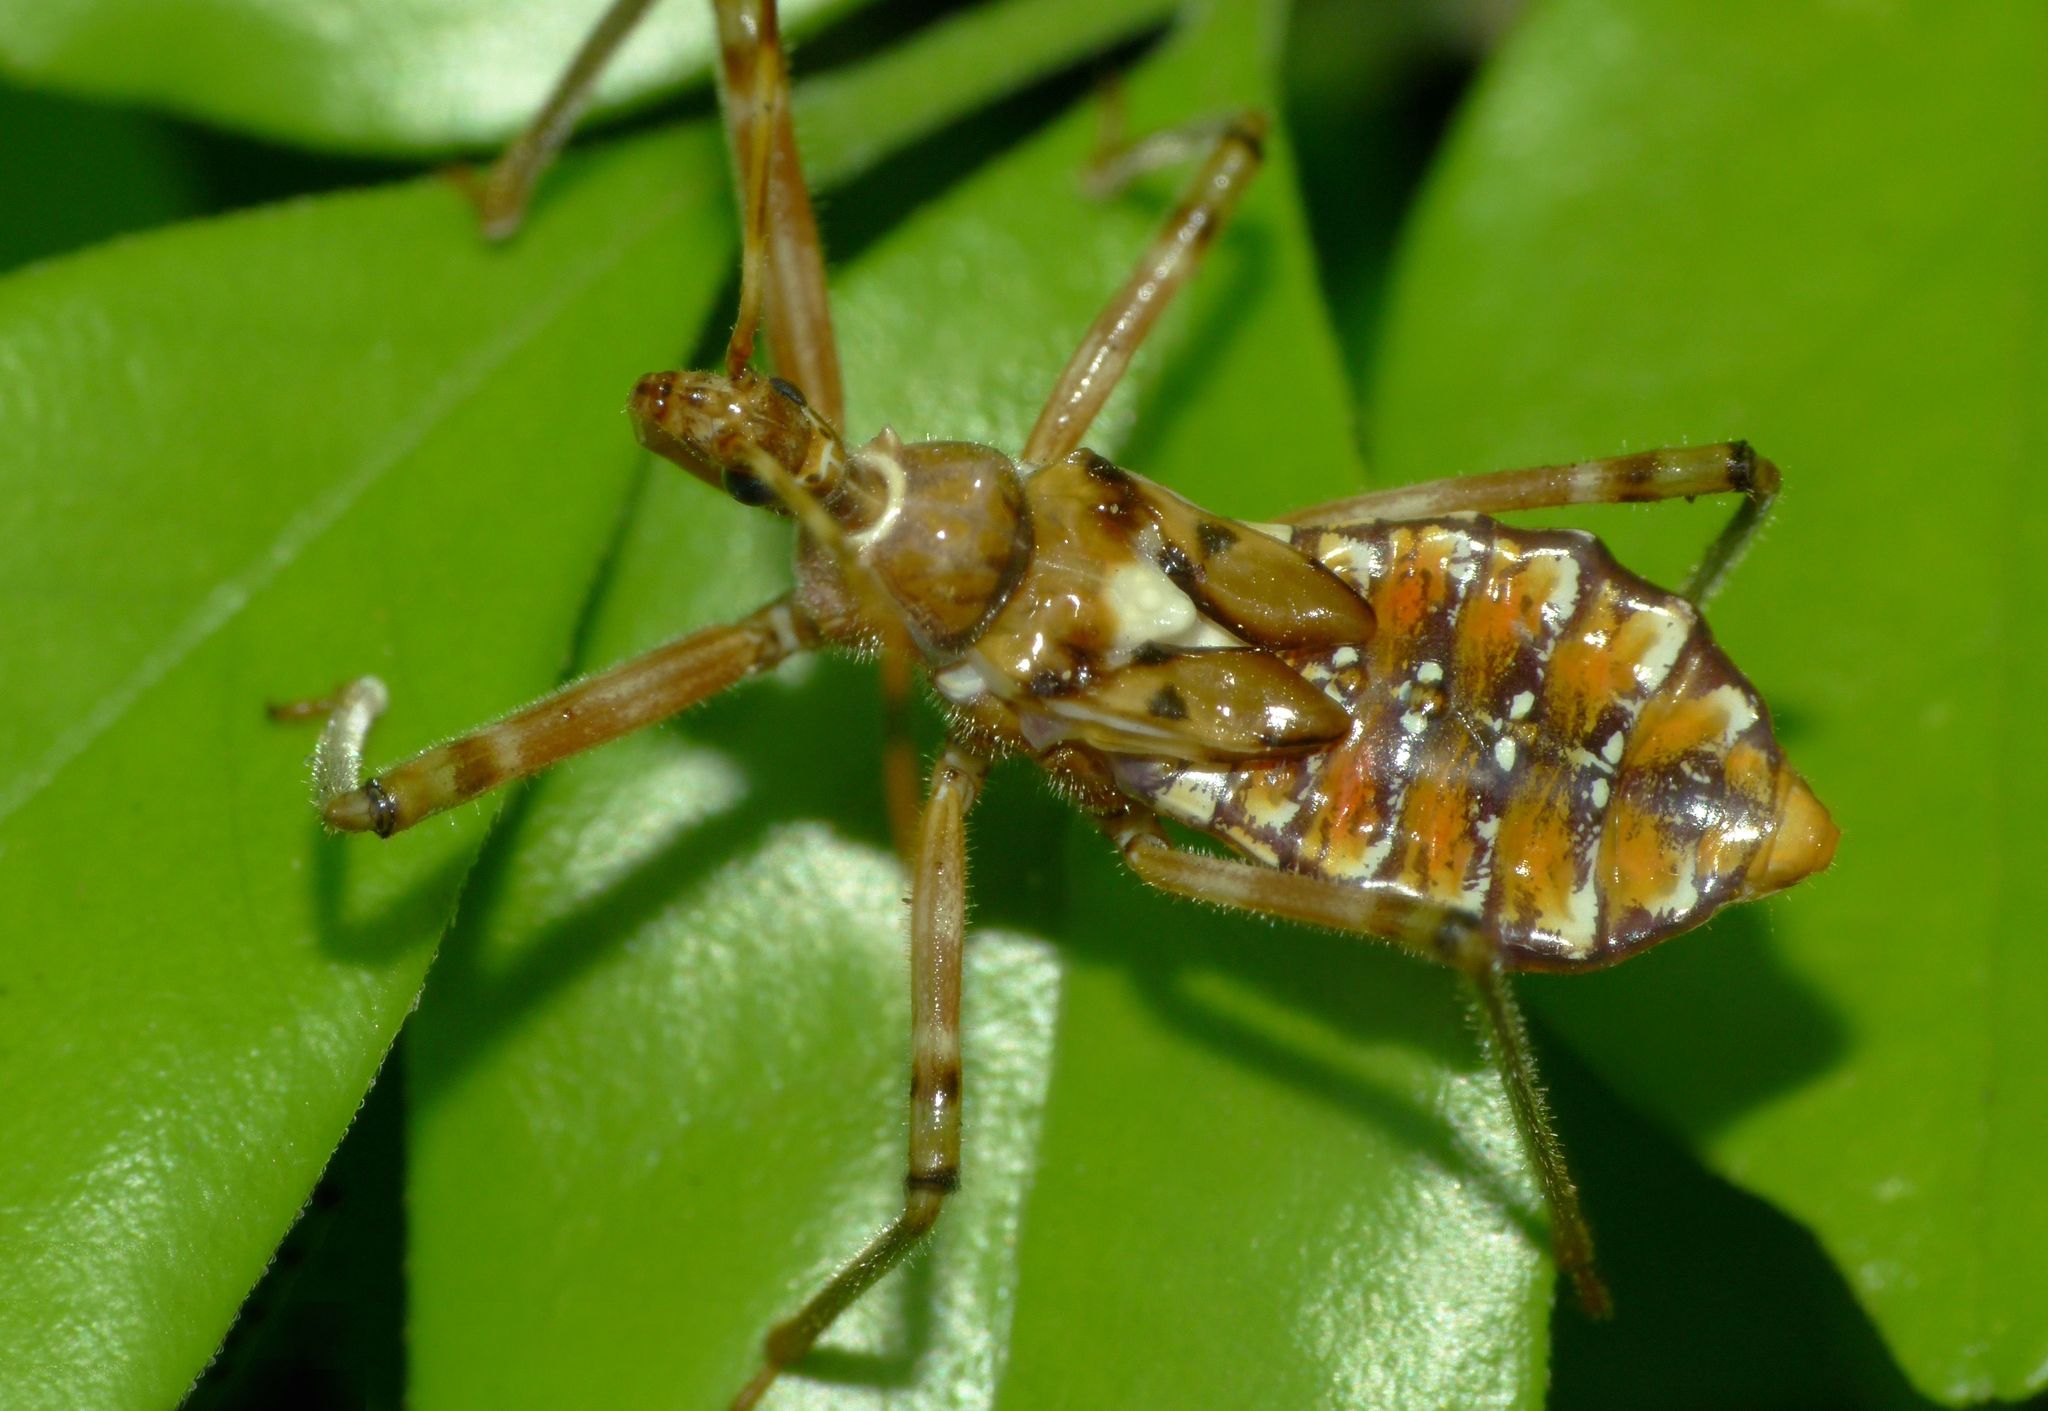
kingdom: Animalia
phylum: Arthropoda
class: Insecta
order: Hemiptera
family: Reduviidae
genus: Pristhesancus
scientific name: Pristhesancus plagipennis
